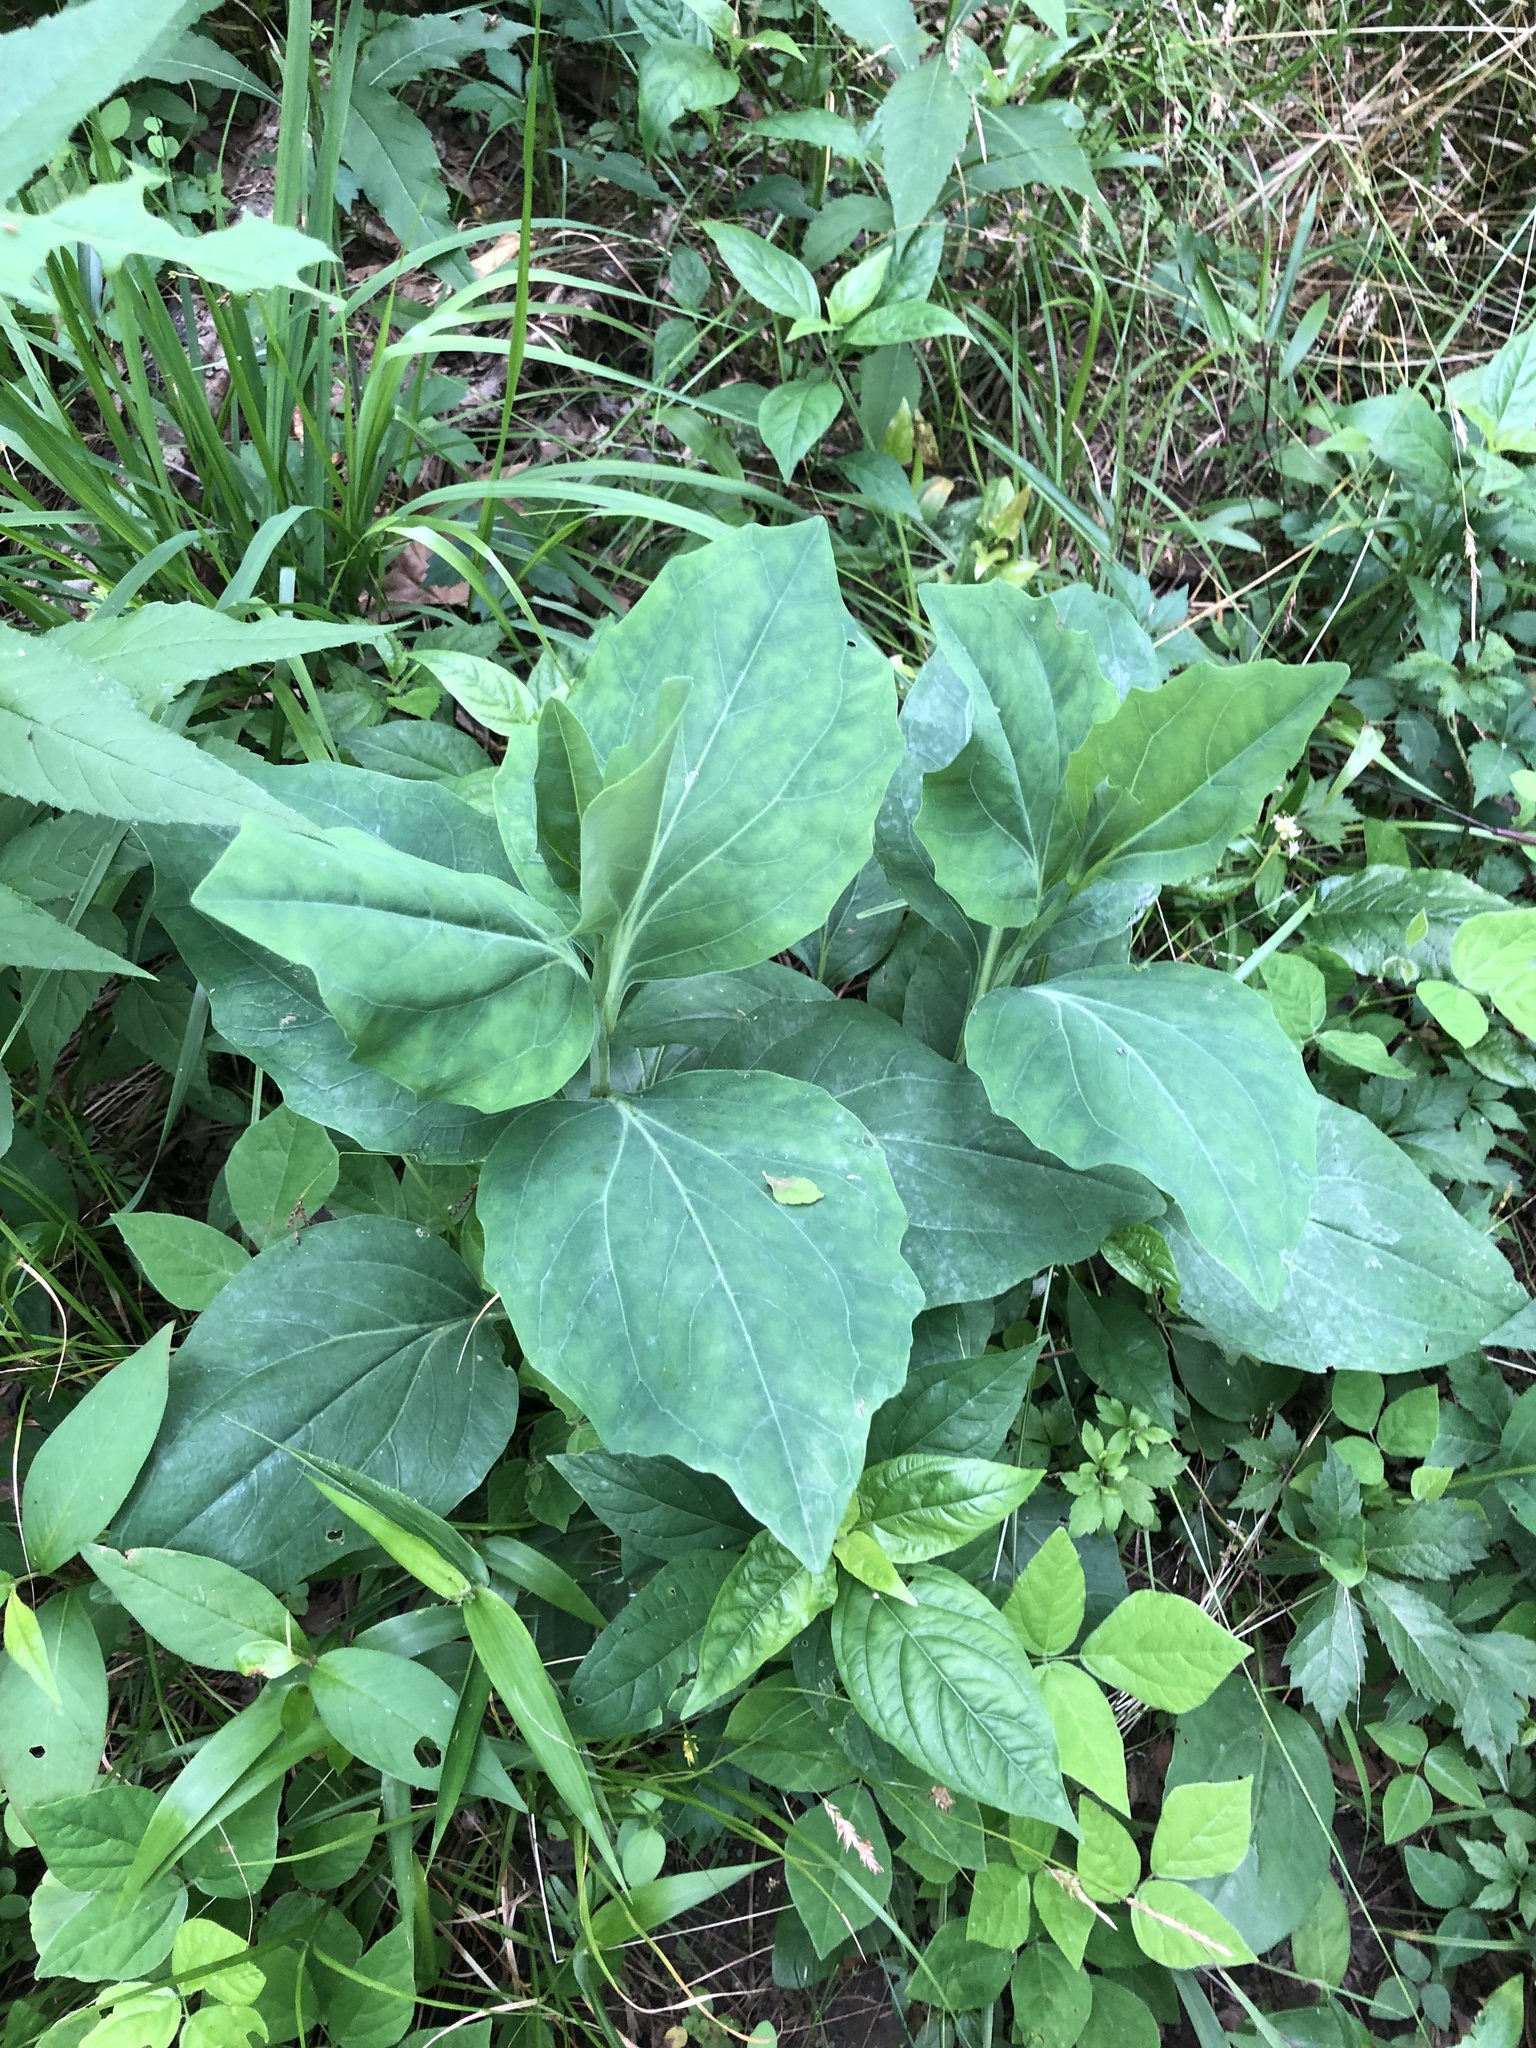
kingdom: Plantae
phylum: Tracheophyta
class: Magnoliopsida
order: Asterales
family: Asteraceae
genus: Arnoglossum
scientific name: Arnoglossum ovatum
